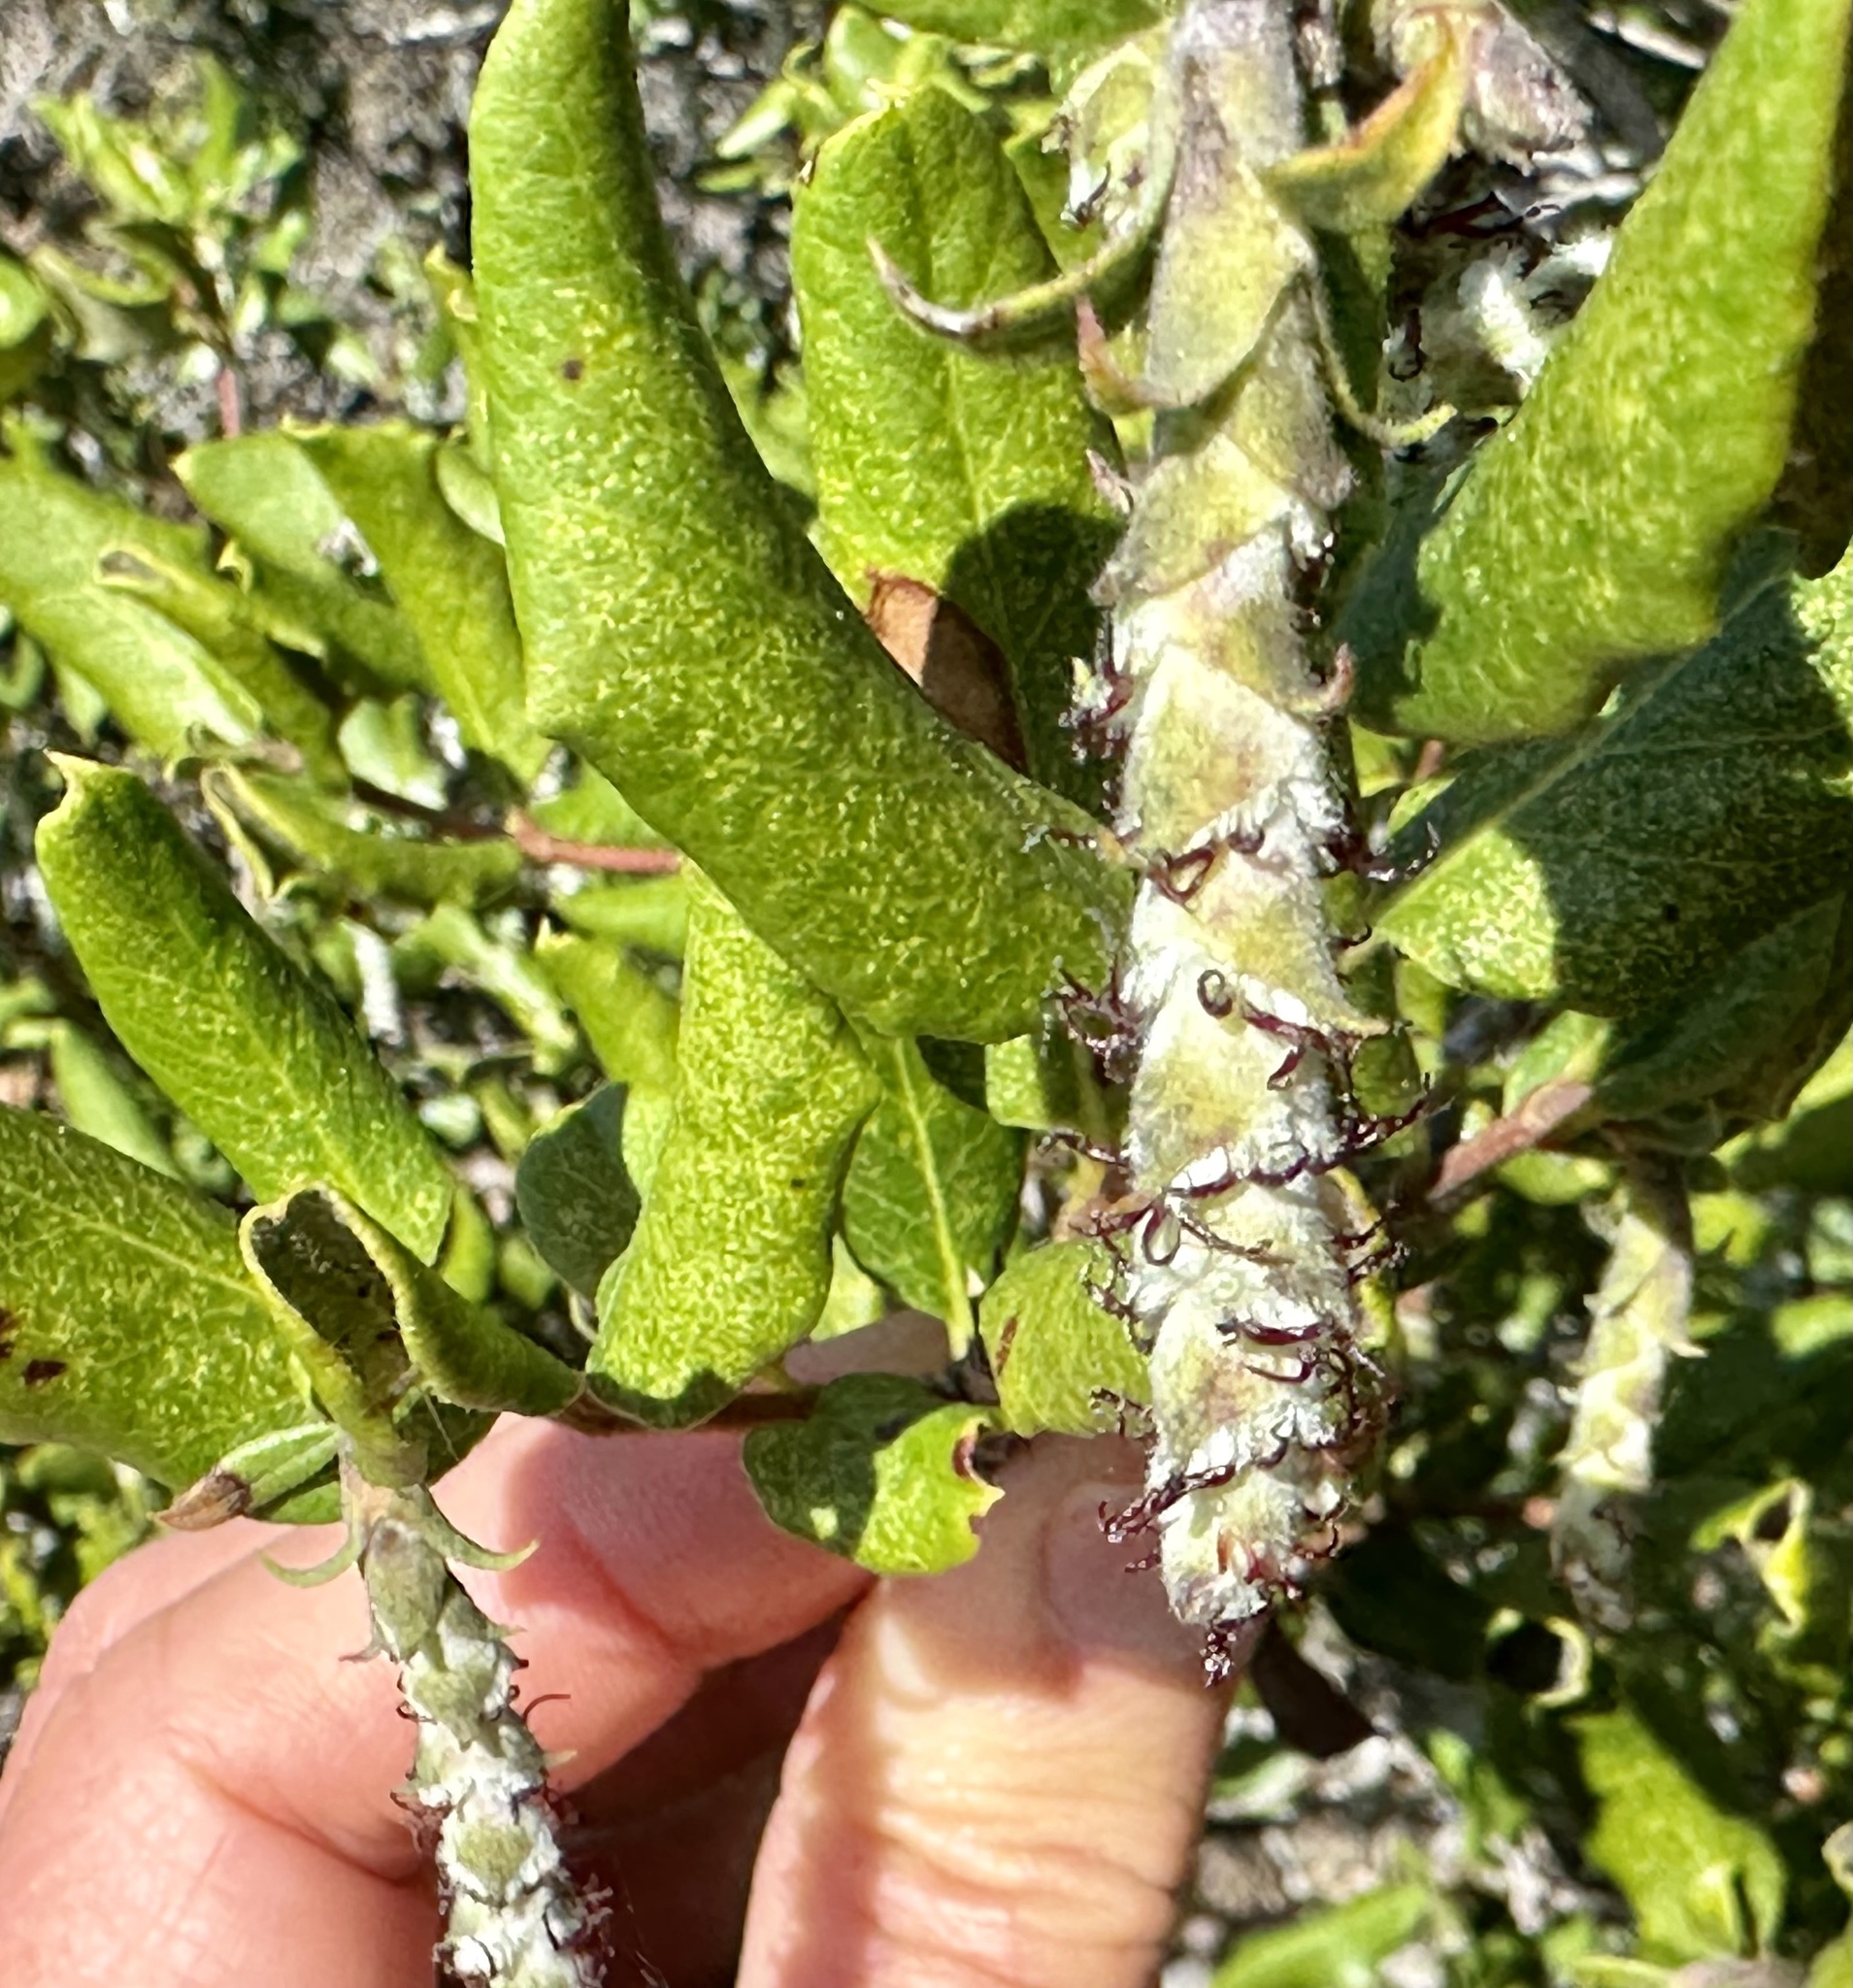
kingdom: Plantae
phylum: Tracheophyta
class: Magnoliopsida
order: Garryales
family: Garryaceae
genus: Garrya
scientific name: Garrya elliptica
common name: Silk-tassel
